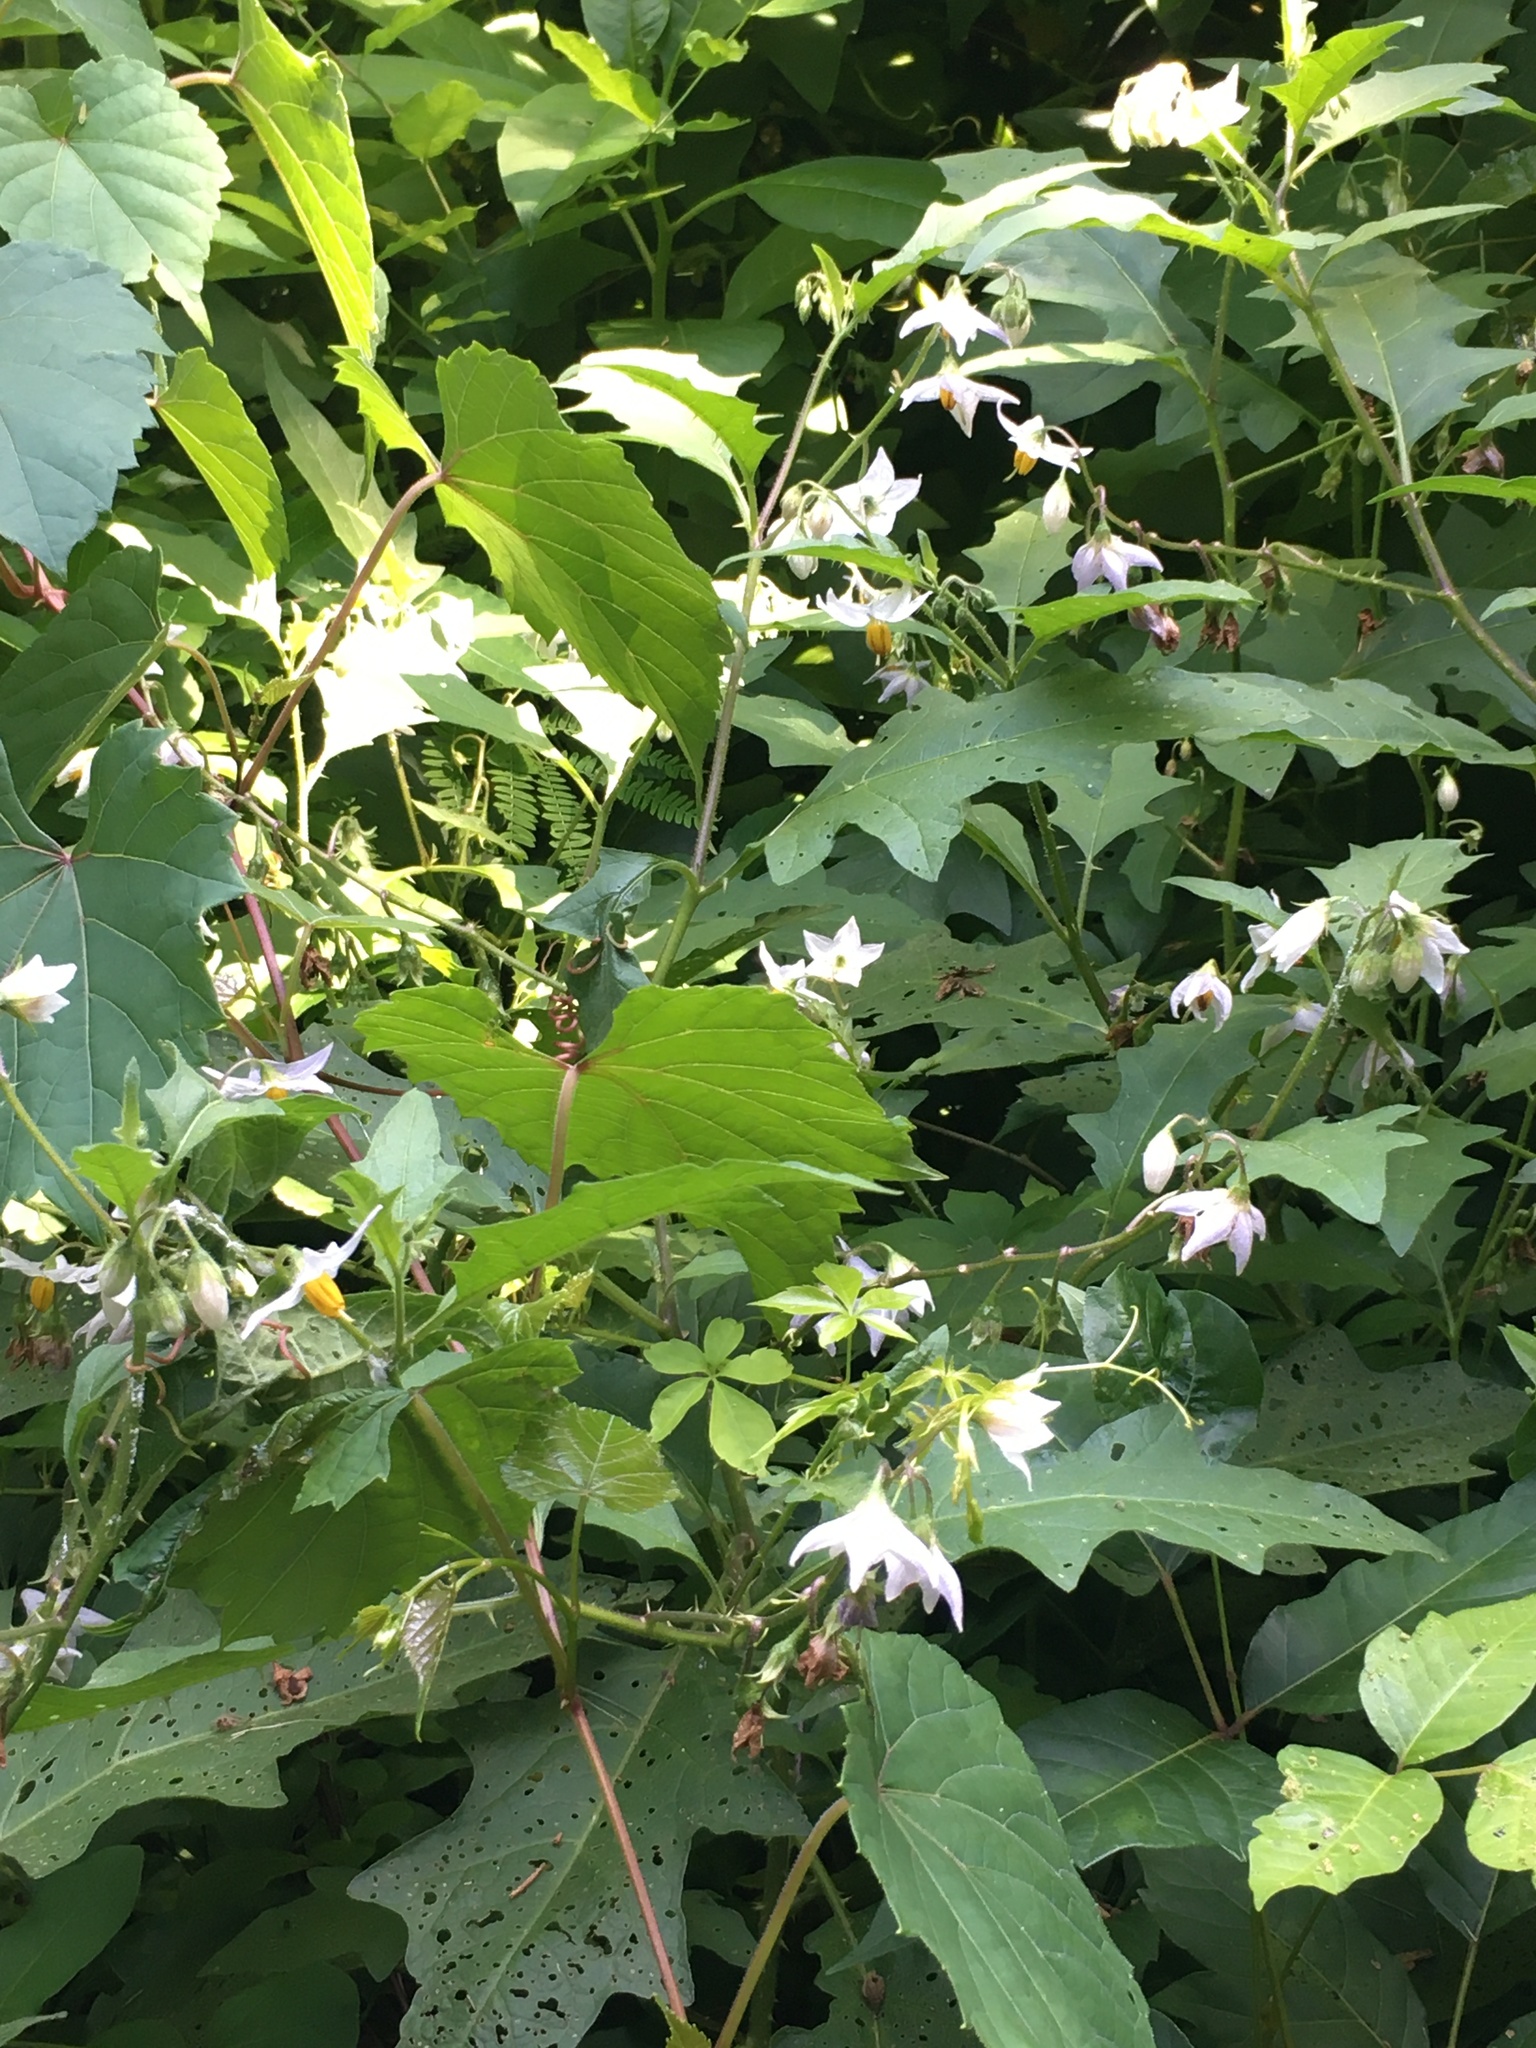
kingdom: Plantae
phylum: Tracheophyta
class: Magnoliopsida
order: Solanales
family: Solanaceae
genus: Solanum
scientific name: Solanum carolinense
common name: Horse-nettle
